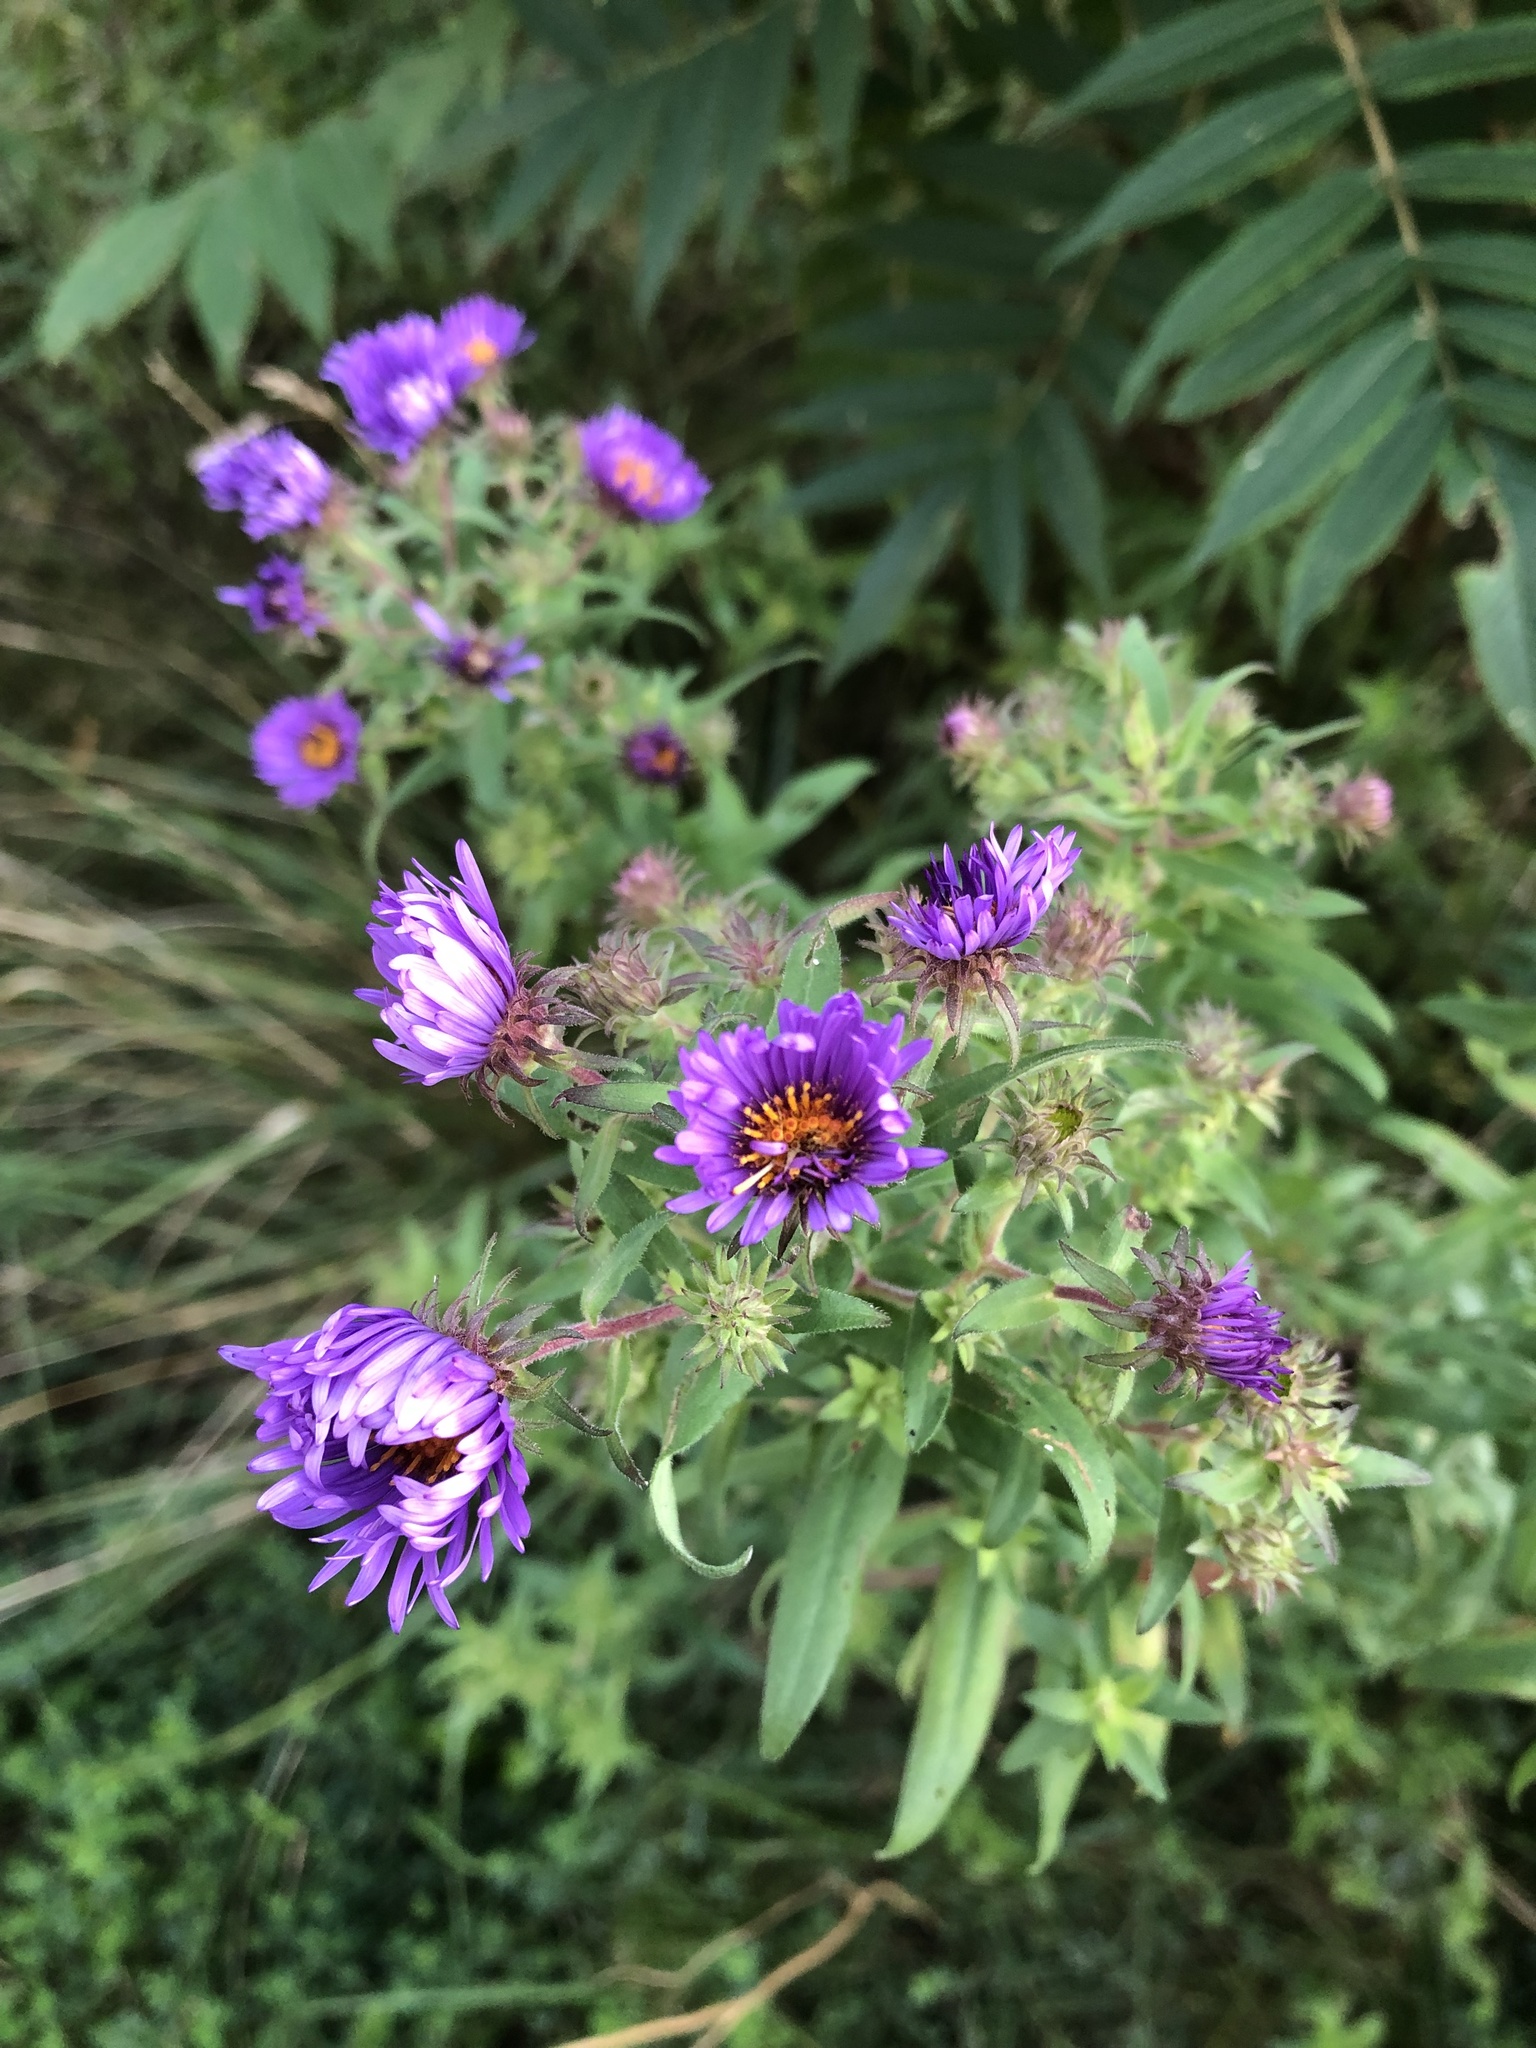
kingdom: Plantae
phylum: Tracheophyta
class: Magnoliopsida
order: Asterales
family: Asteraceae
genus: Symphyotrichum
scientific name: Symphyotrichum novae-angliae
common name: Michaelmas daisy
